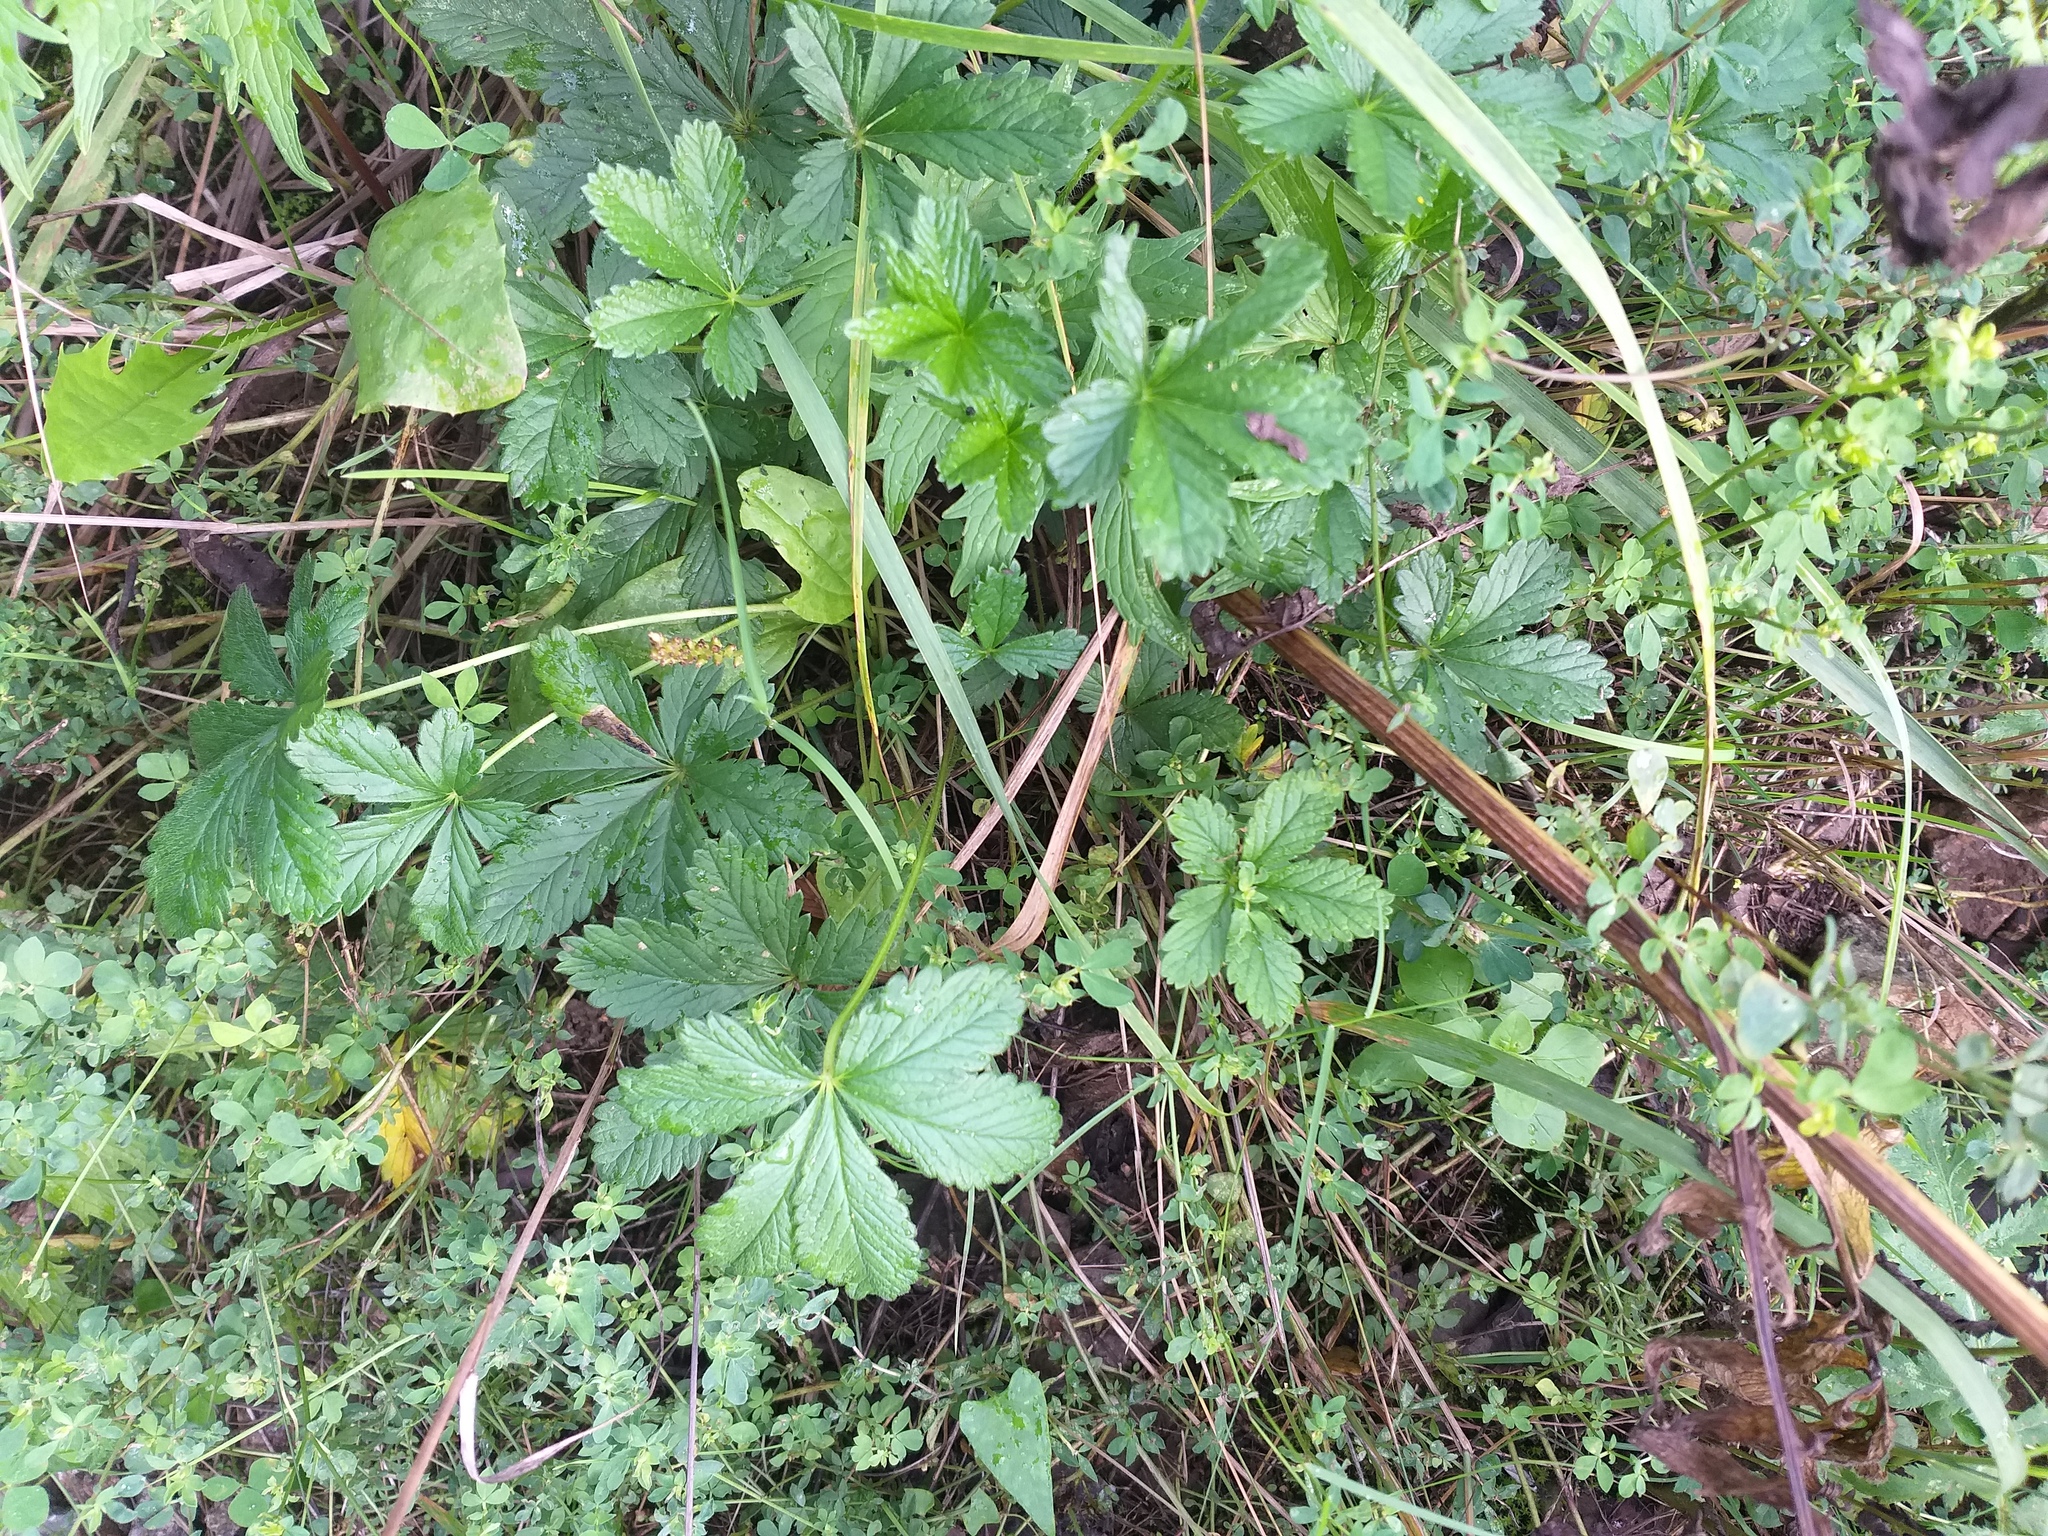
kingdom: Plantae
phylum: Tracheophyta
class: Magnoliopsida
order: Rosales
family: Rosaceae
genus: Potentilla
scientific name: Potentilla thuringiaca
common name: European cinquefoil
